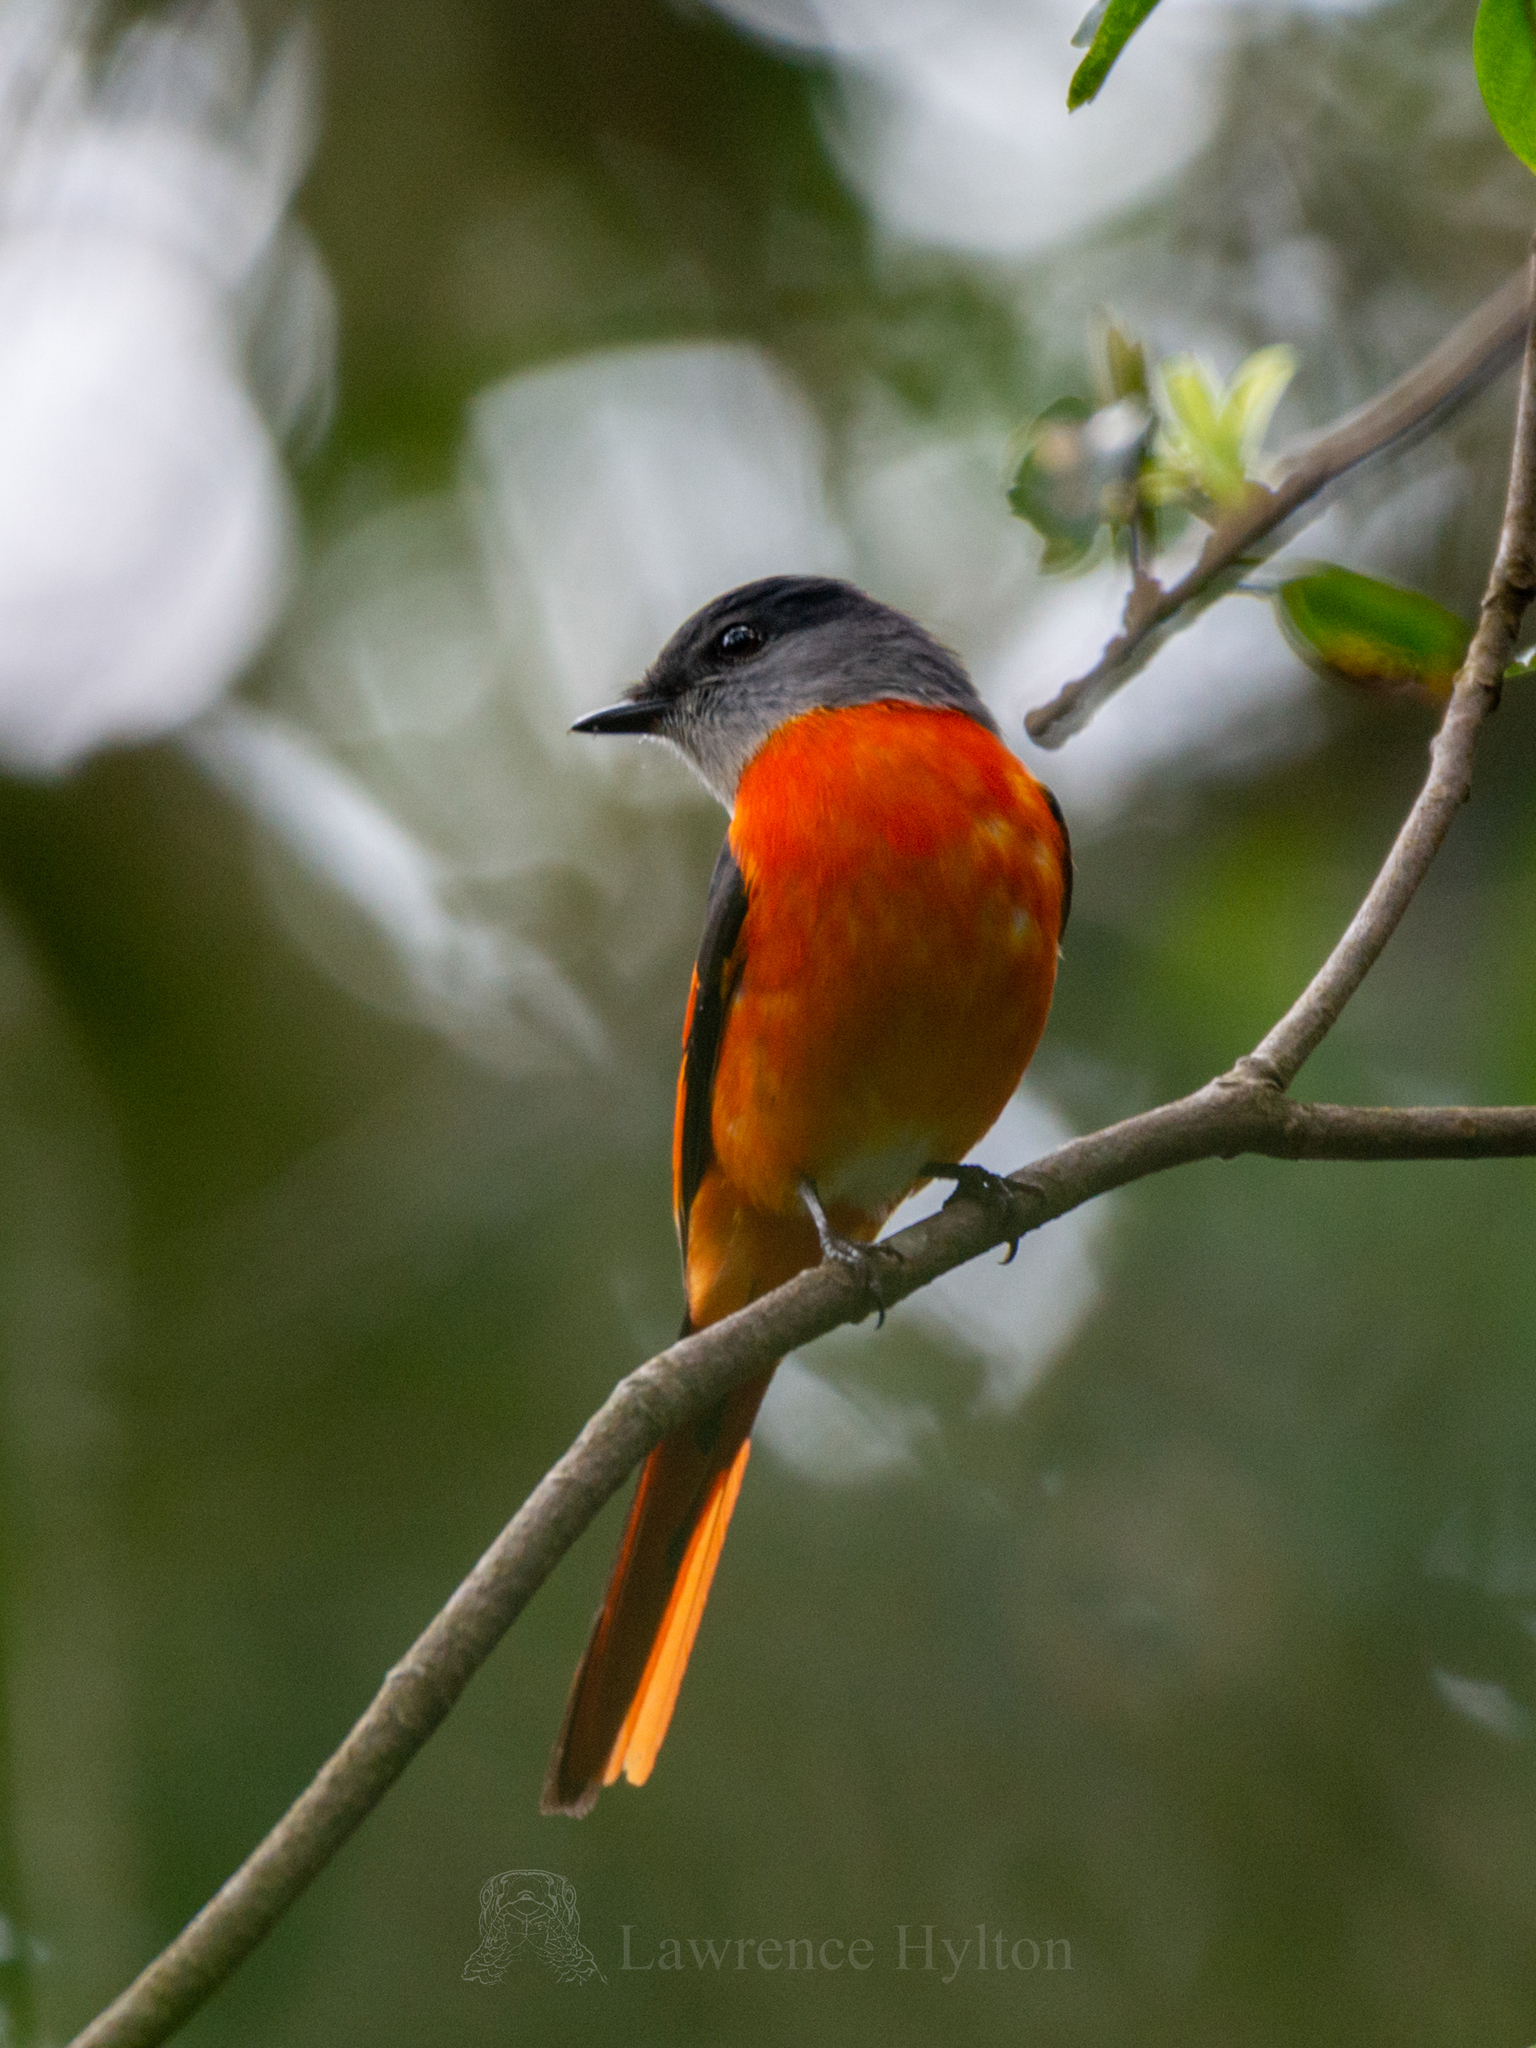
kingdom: Animalia
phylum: Chordata
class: Aves
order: Passeriformes
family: Campephagidae
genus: Pericrocotus
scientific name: Pericrocotus solaris
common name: Grey-chinned minivet
